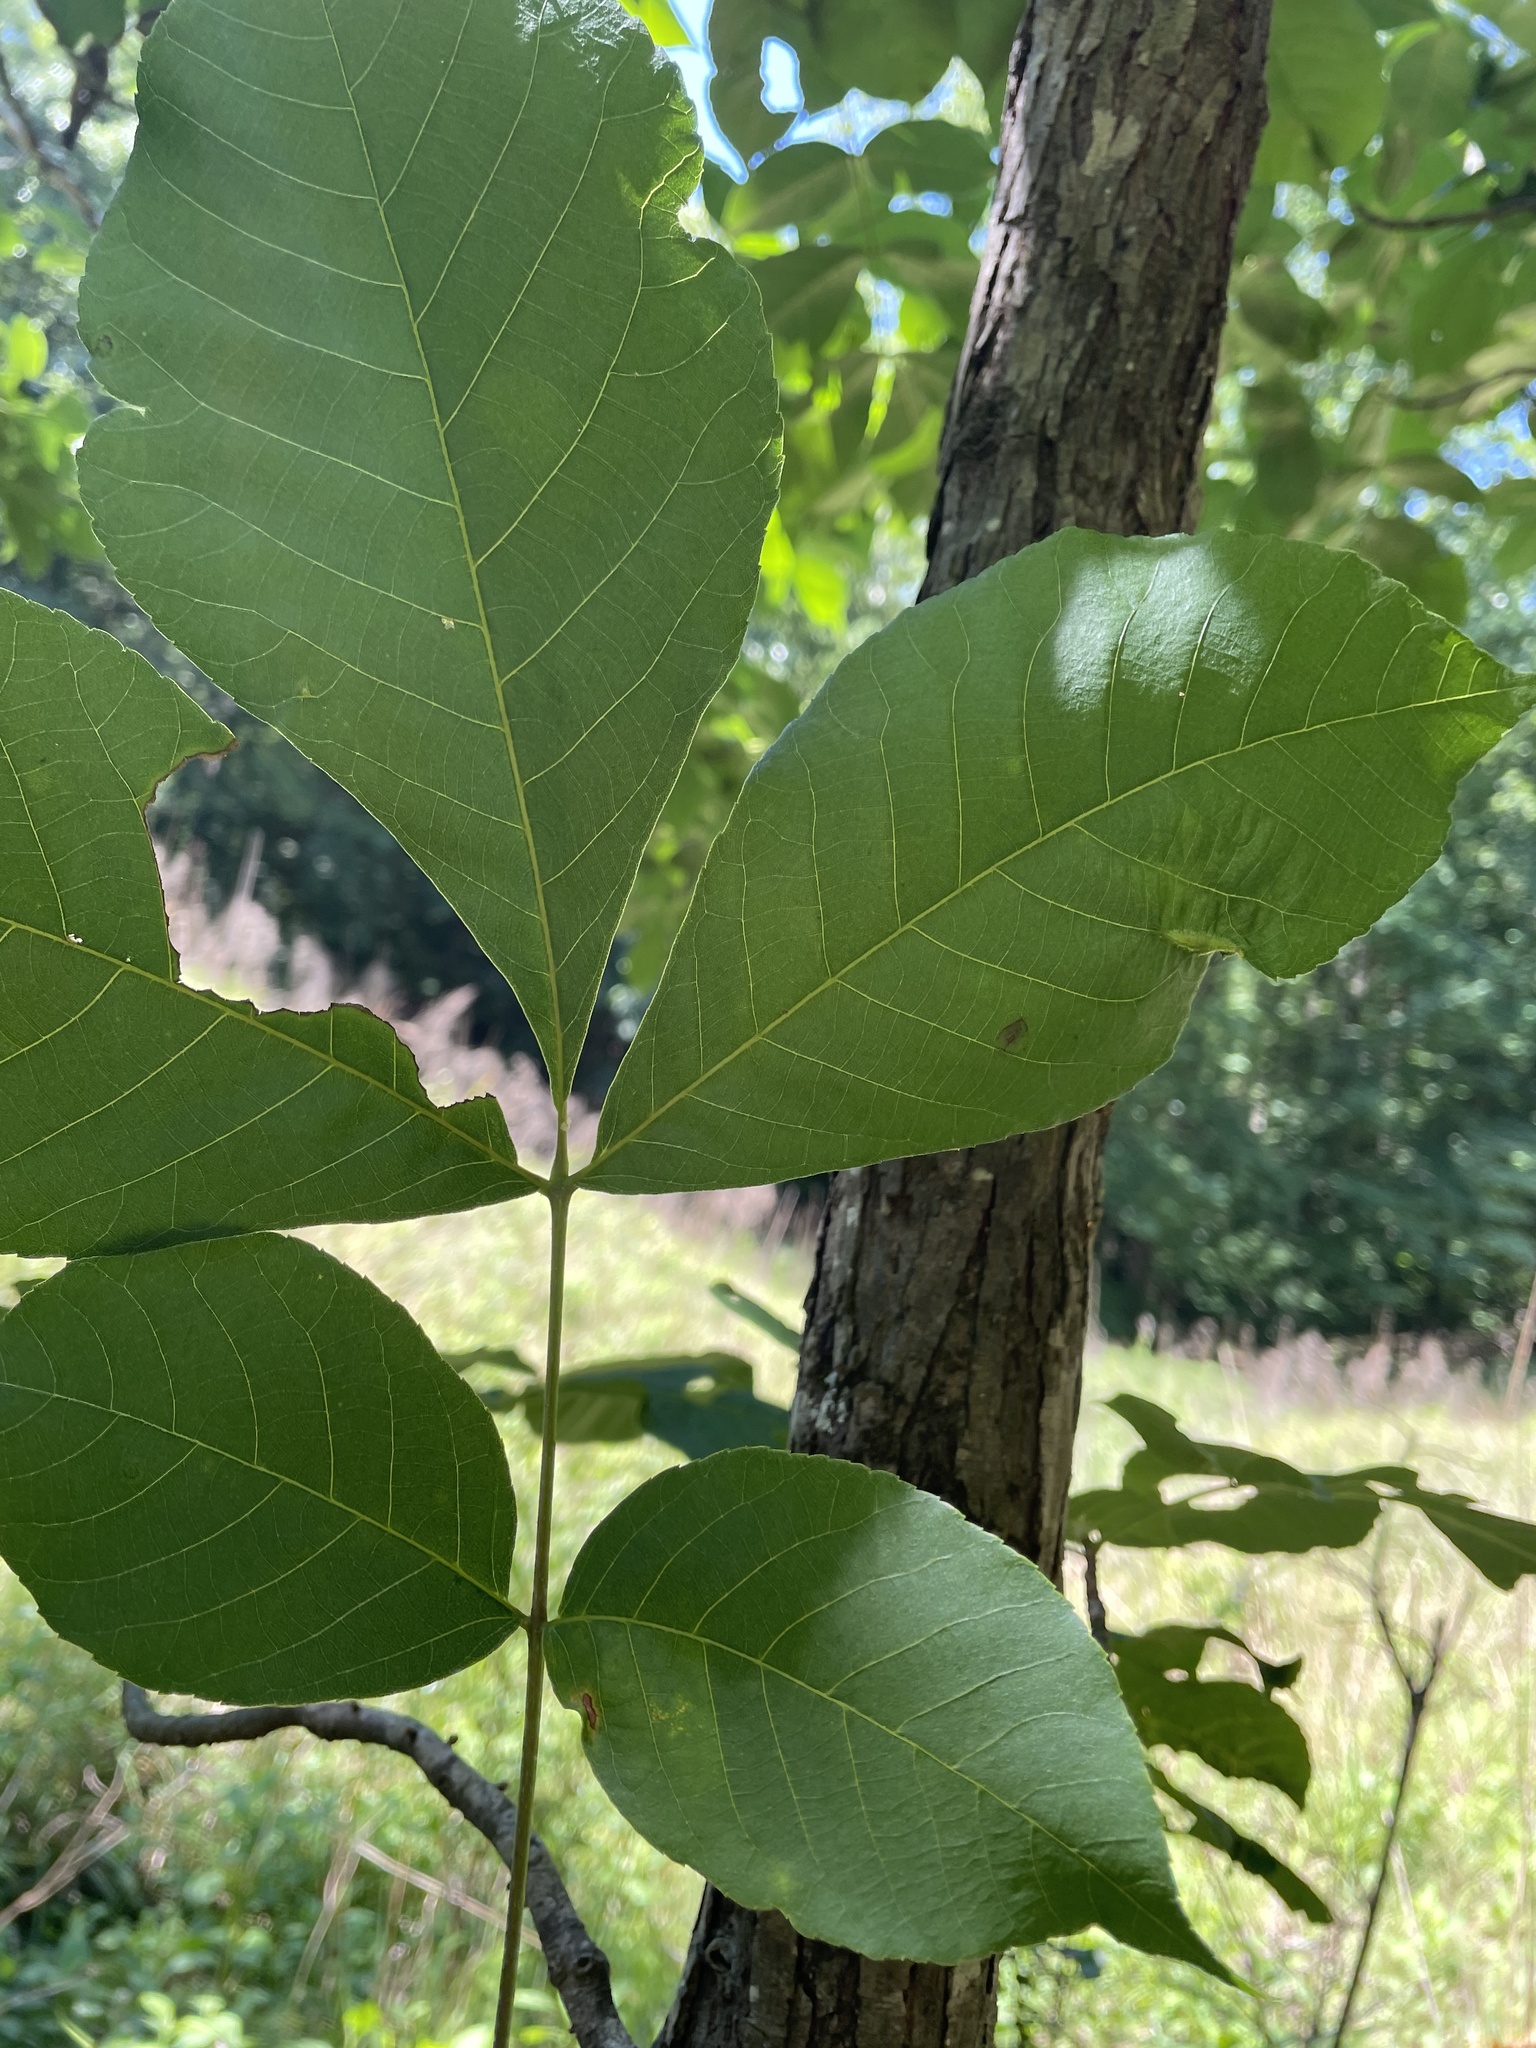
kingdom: Animalia
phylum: Arthropoda
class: Insecta
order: Hemiptera
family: Phylloxeridae
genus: Phylloxera
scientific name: Phylloxera caryaevenae
